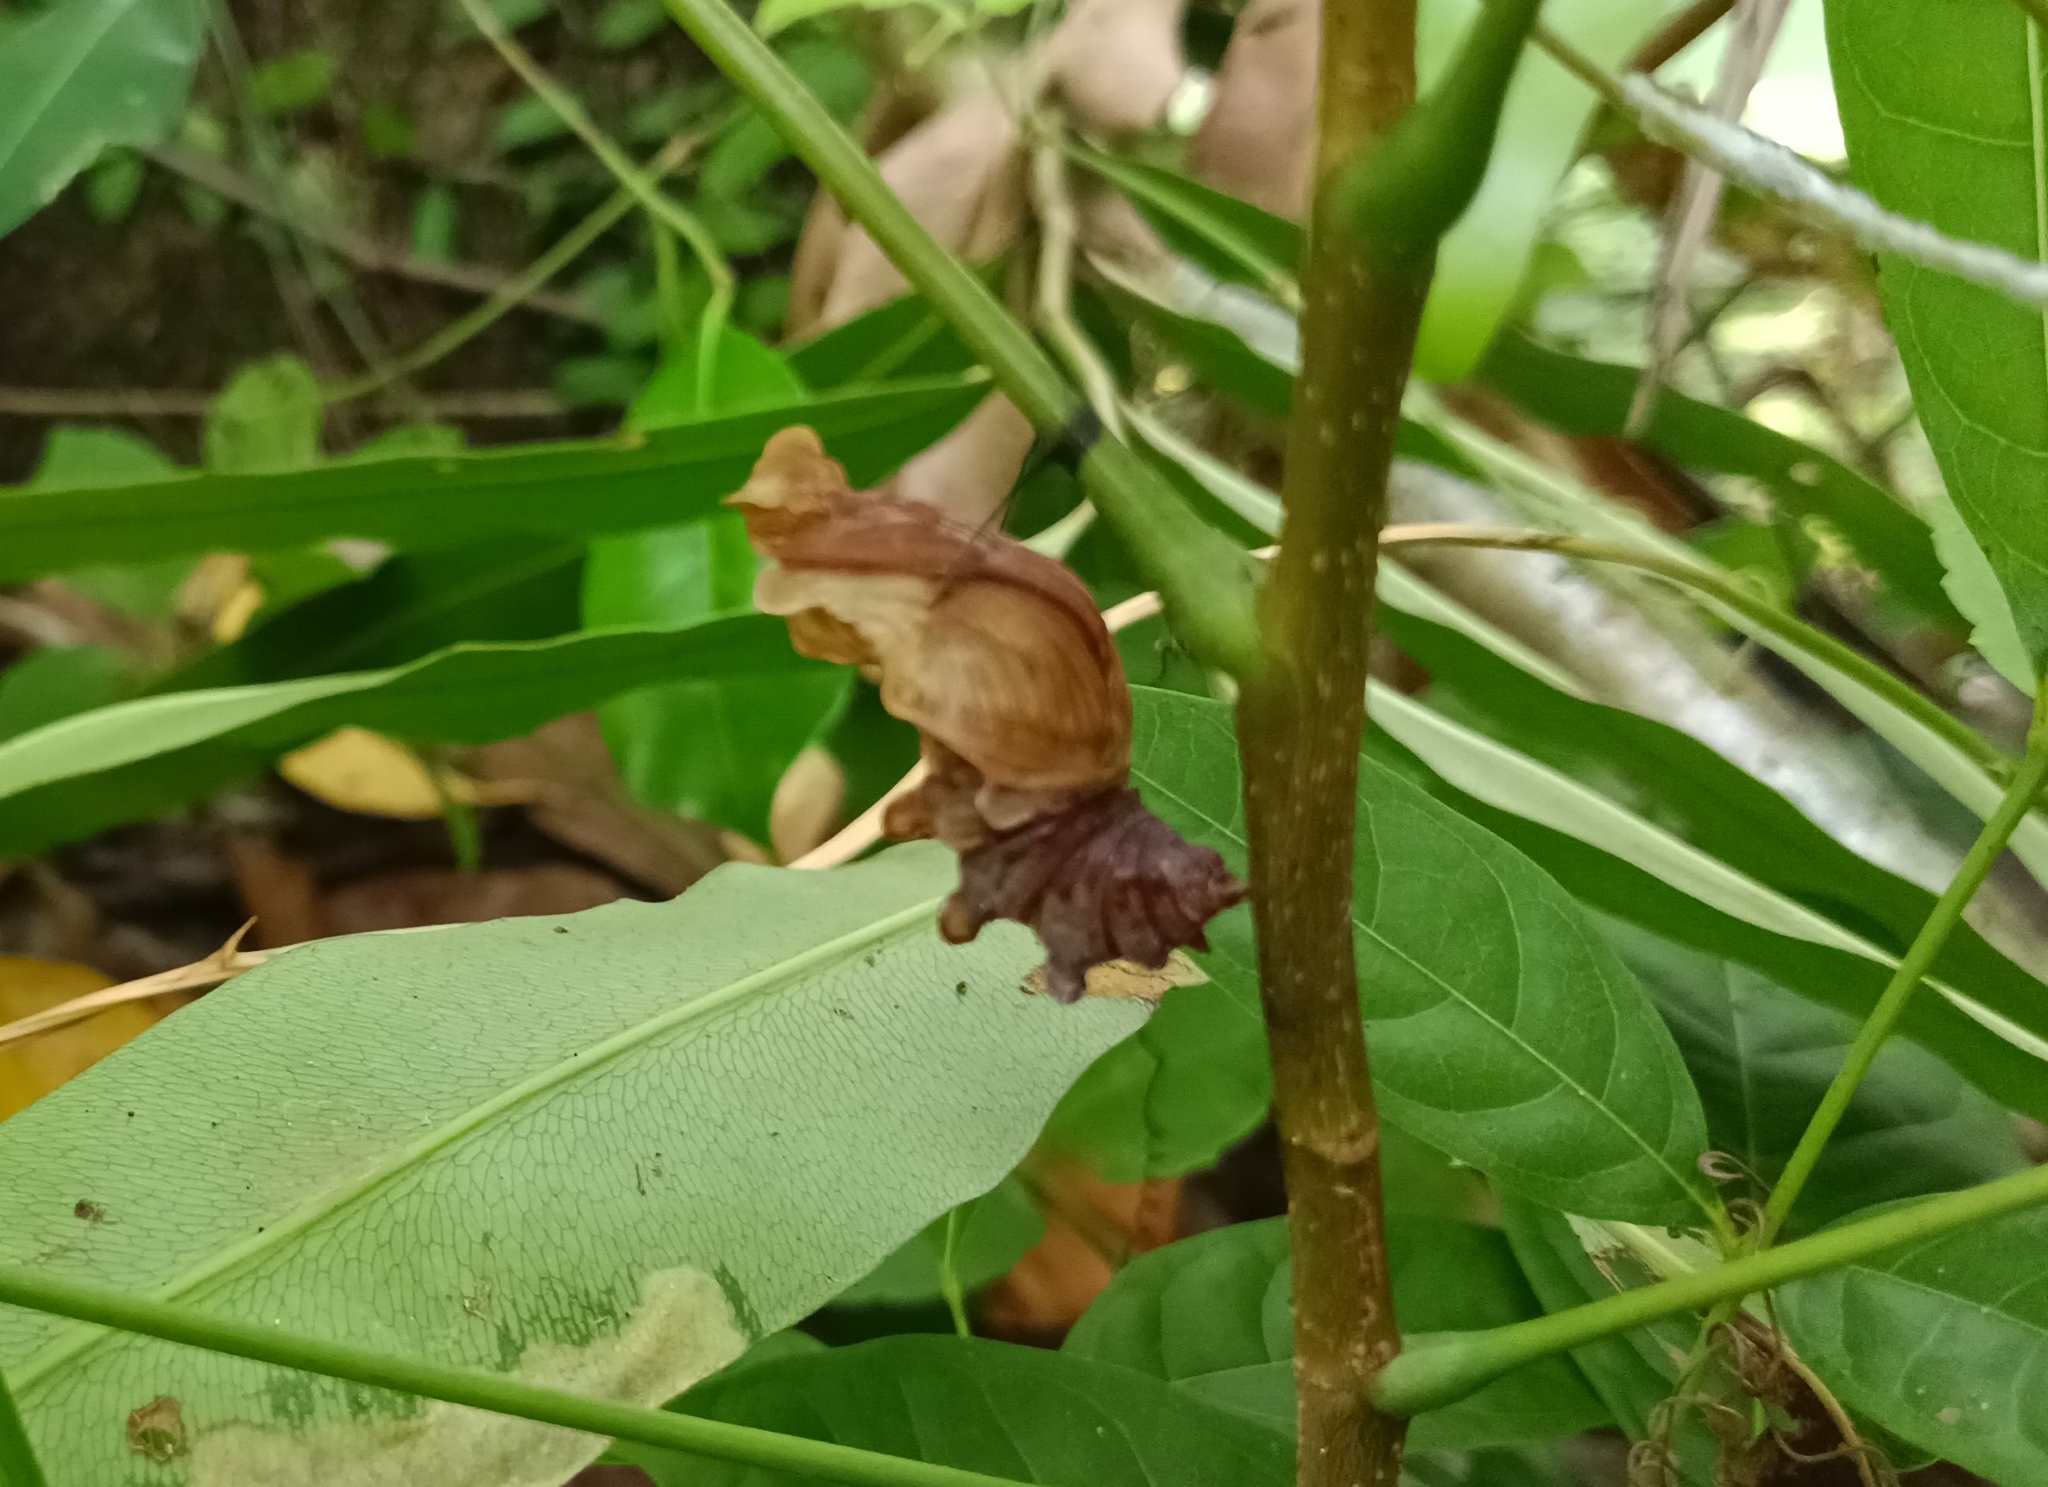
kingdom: Animalia
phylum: Arthropoda
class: Insecta
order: Lepidoptera
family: Papilionidae
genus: Pachliopta
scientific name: Pachliopta aristolochiae
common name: Common rose
